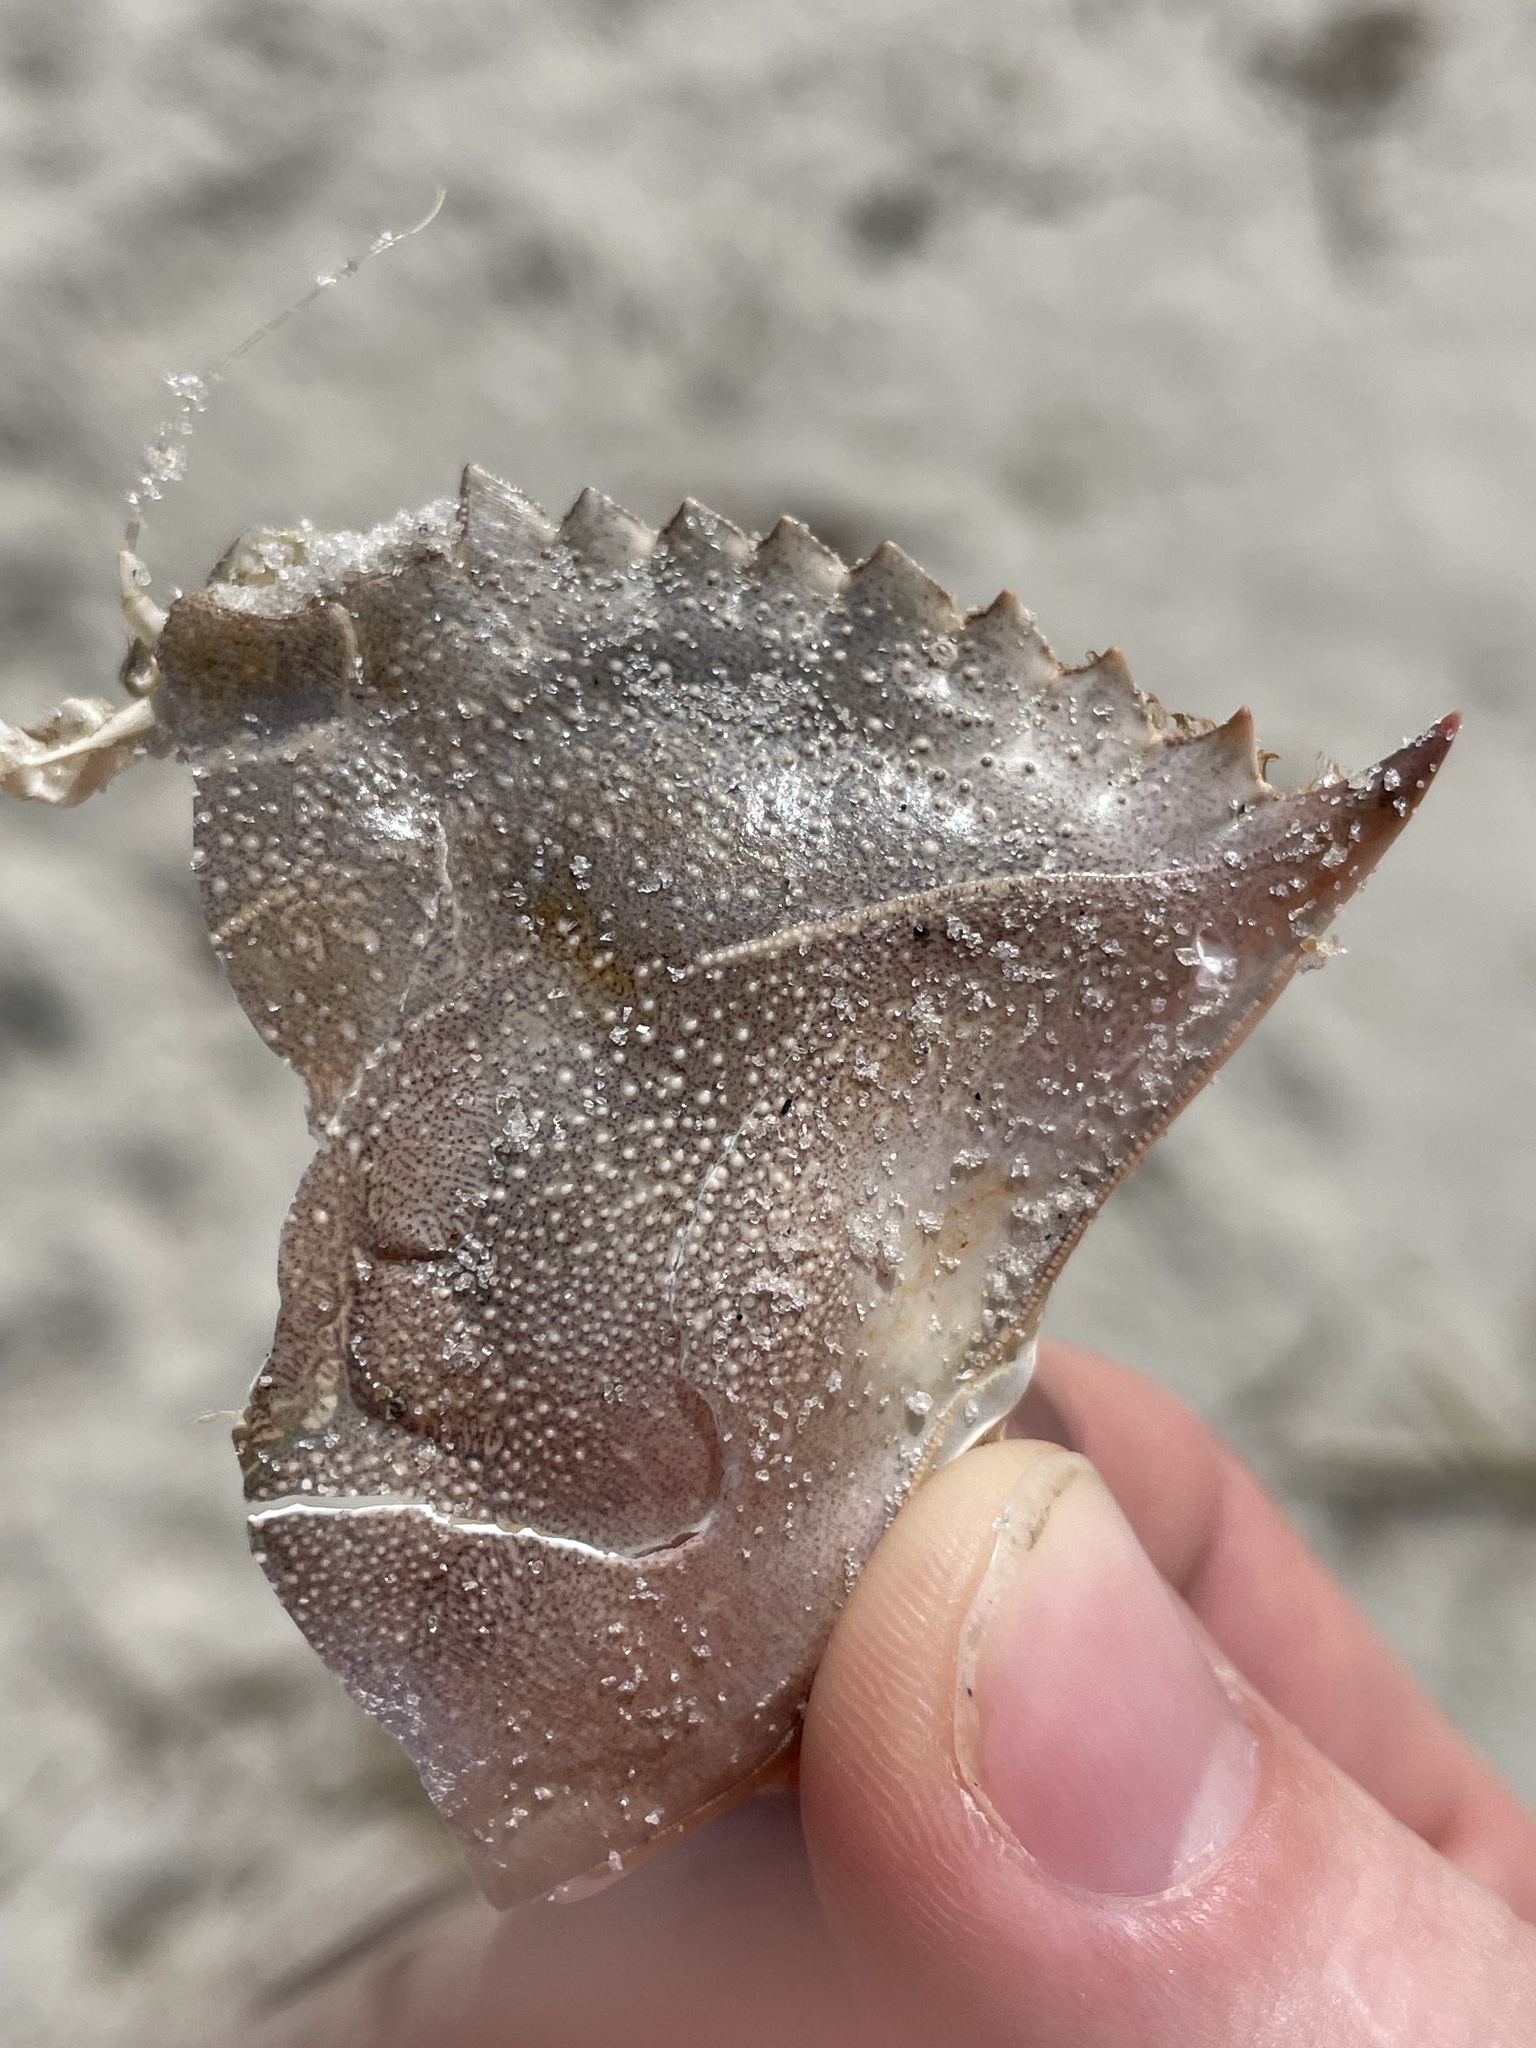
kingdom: Animalia
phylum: Arthropoda
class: Malacostraca
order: Decapoda
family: Portunidae
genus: Callinectes
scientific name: Callinectes sapidus
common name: Blue crab
